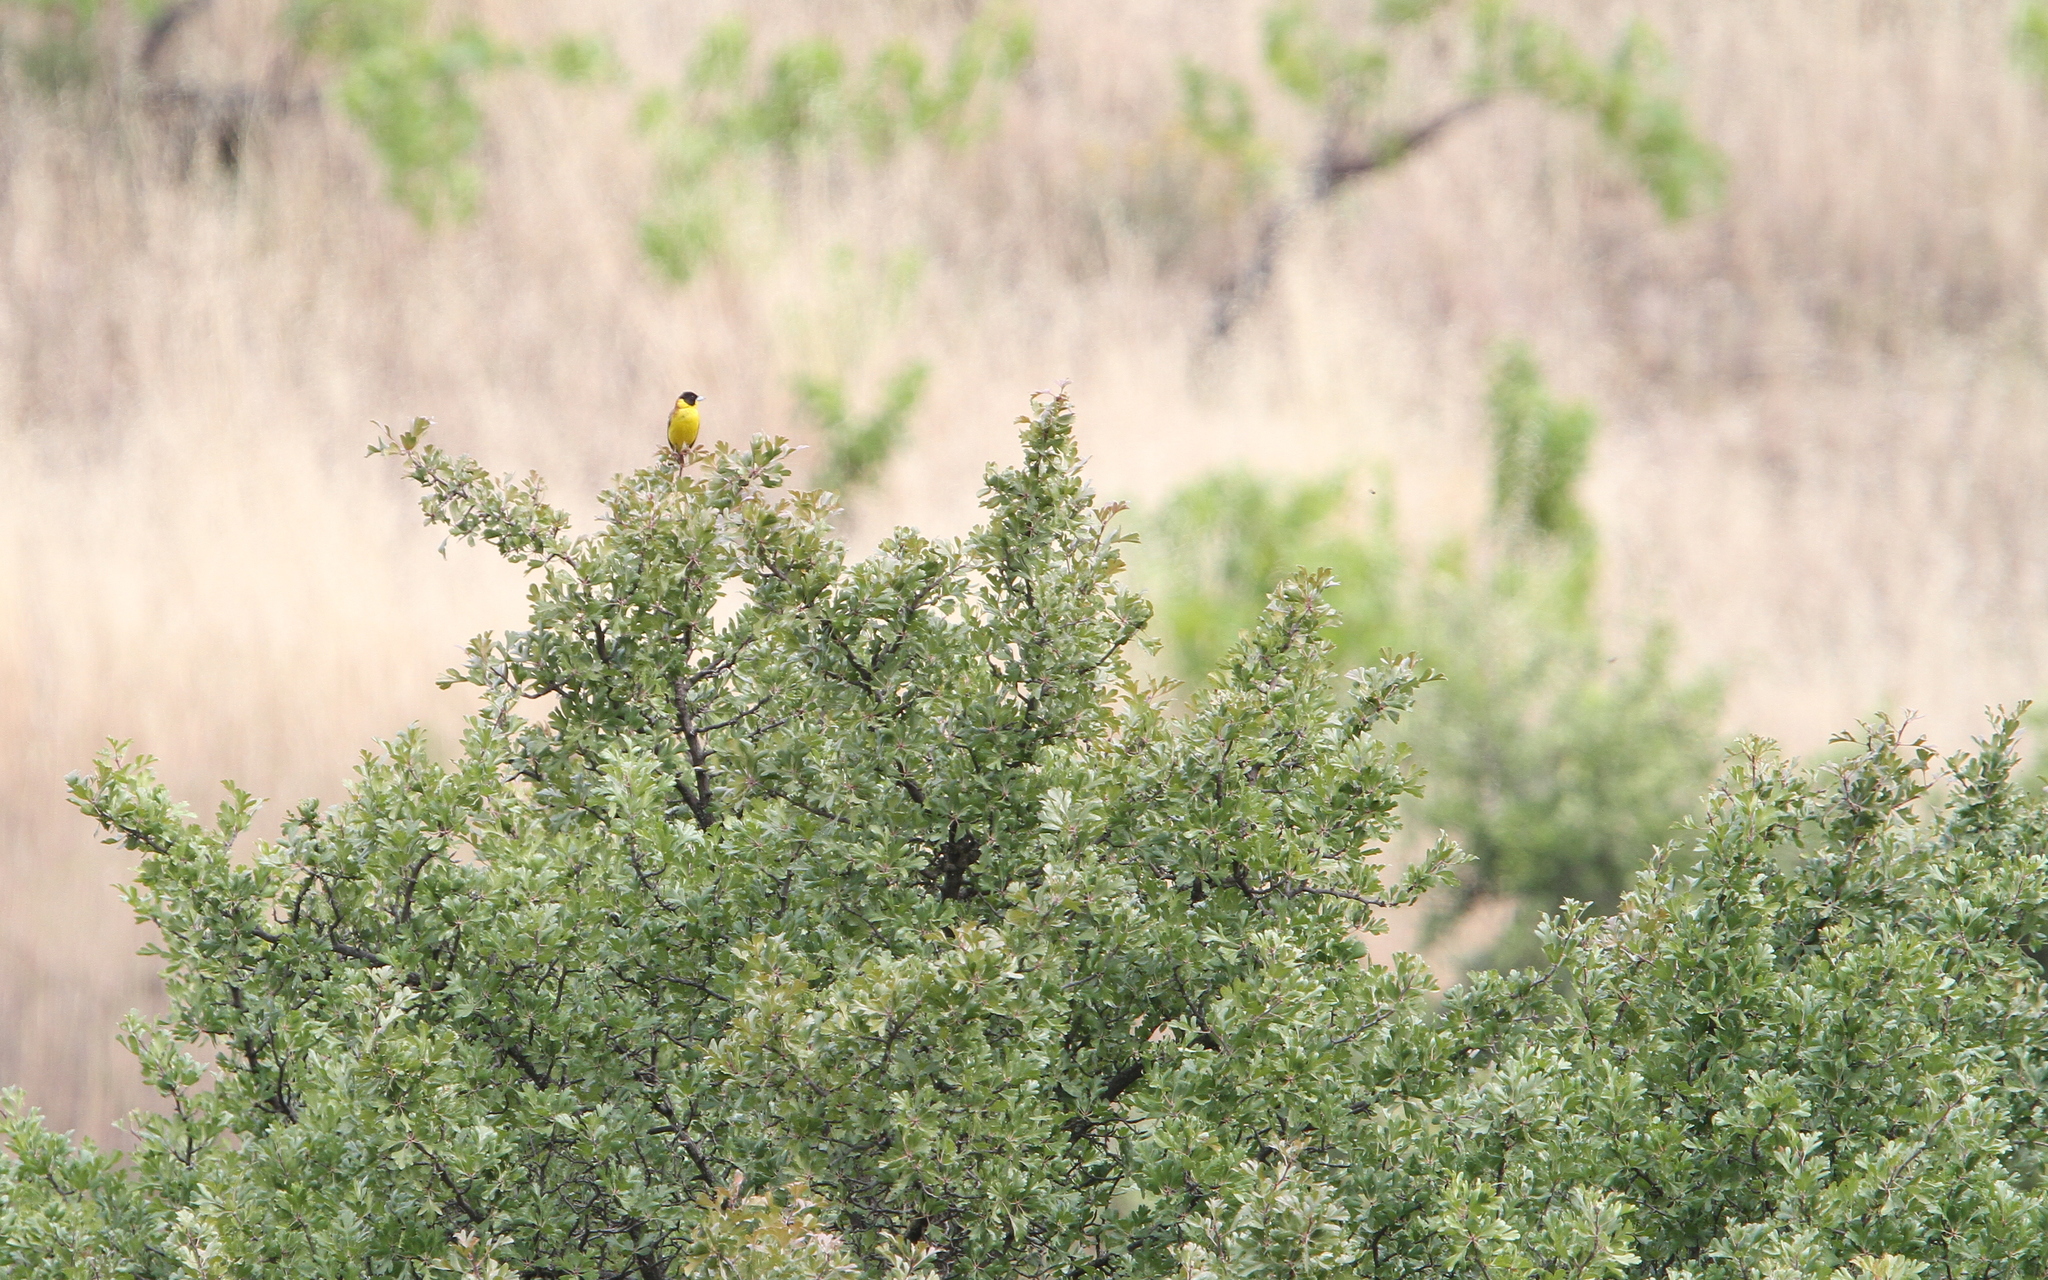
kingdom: Animalia
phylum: Chordata
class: Aves
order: Passeriformes
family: Emberizidae
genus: Emberiza
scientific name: Emberiza melanocephala
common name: Black-headed bunting
